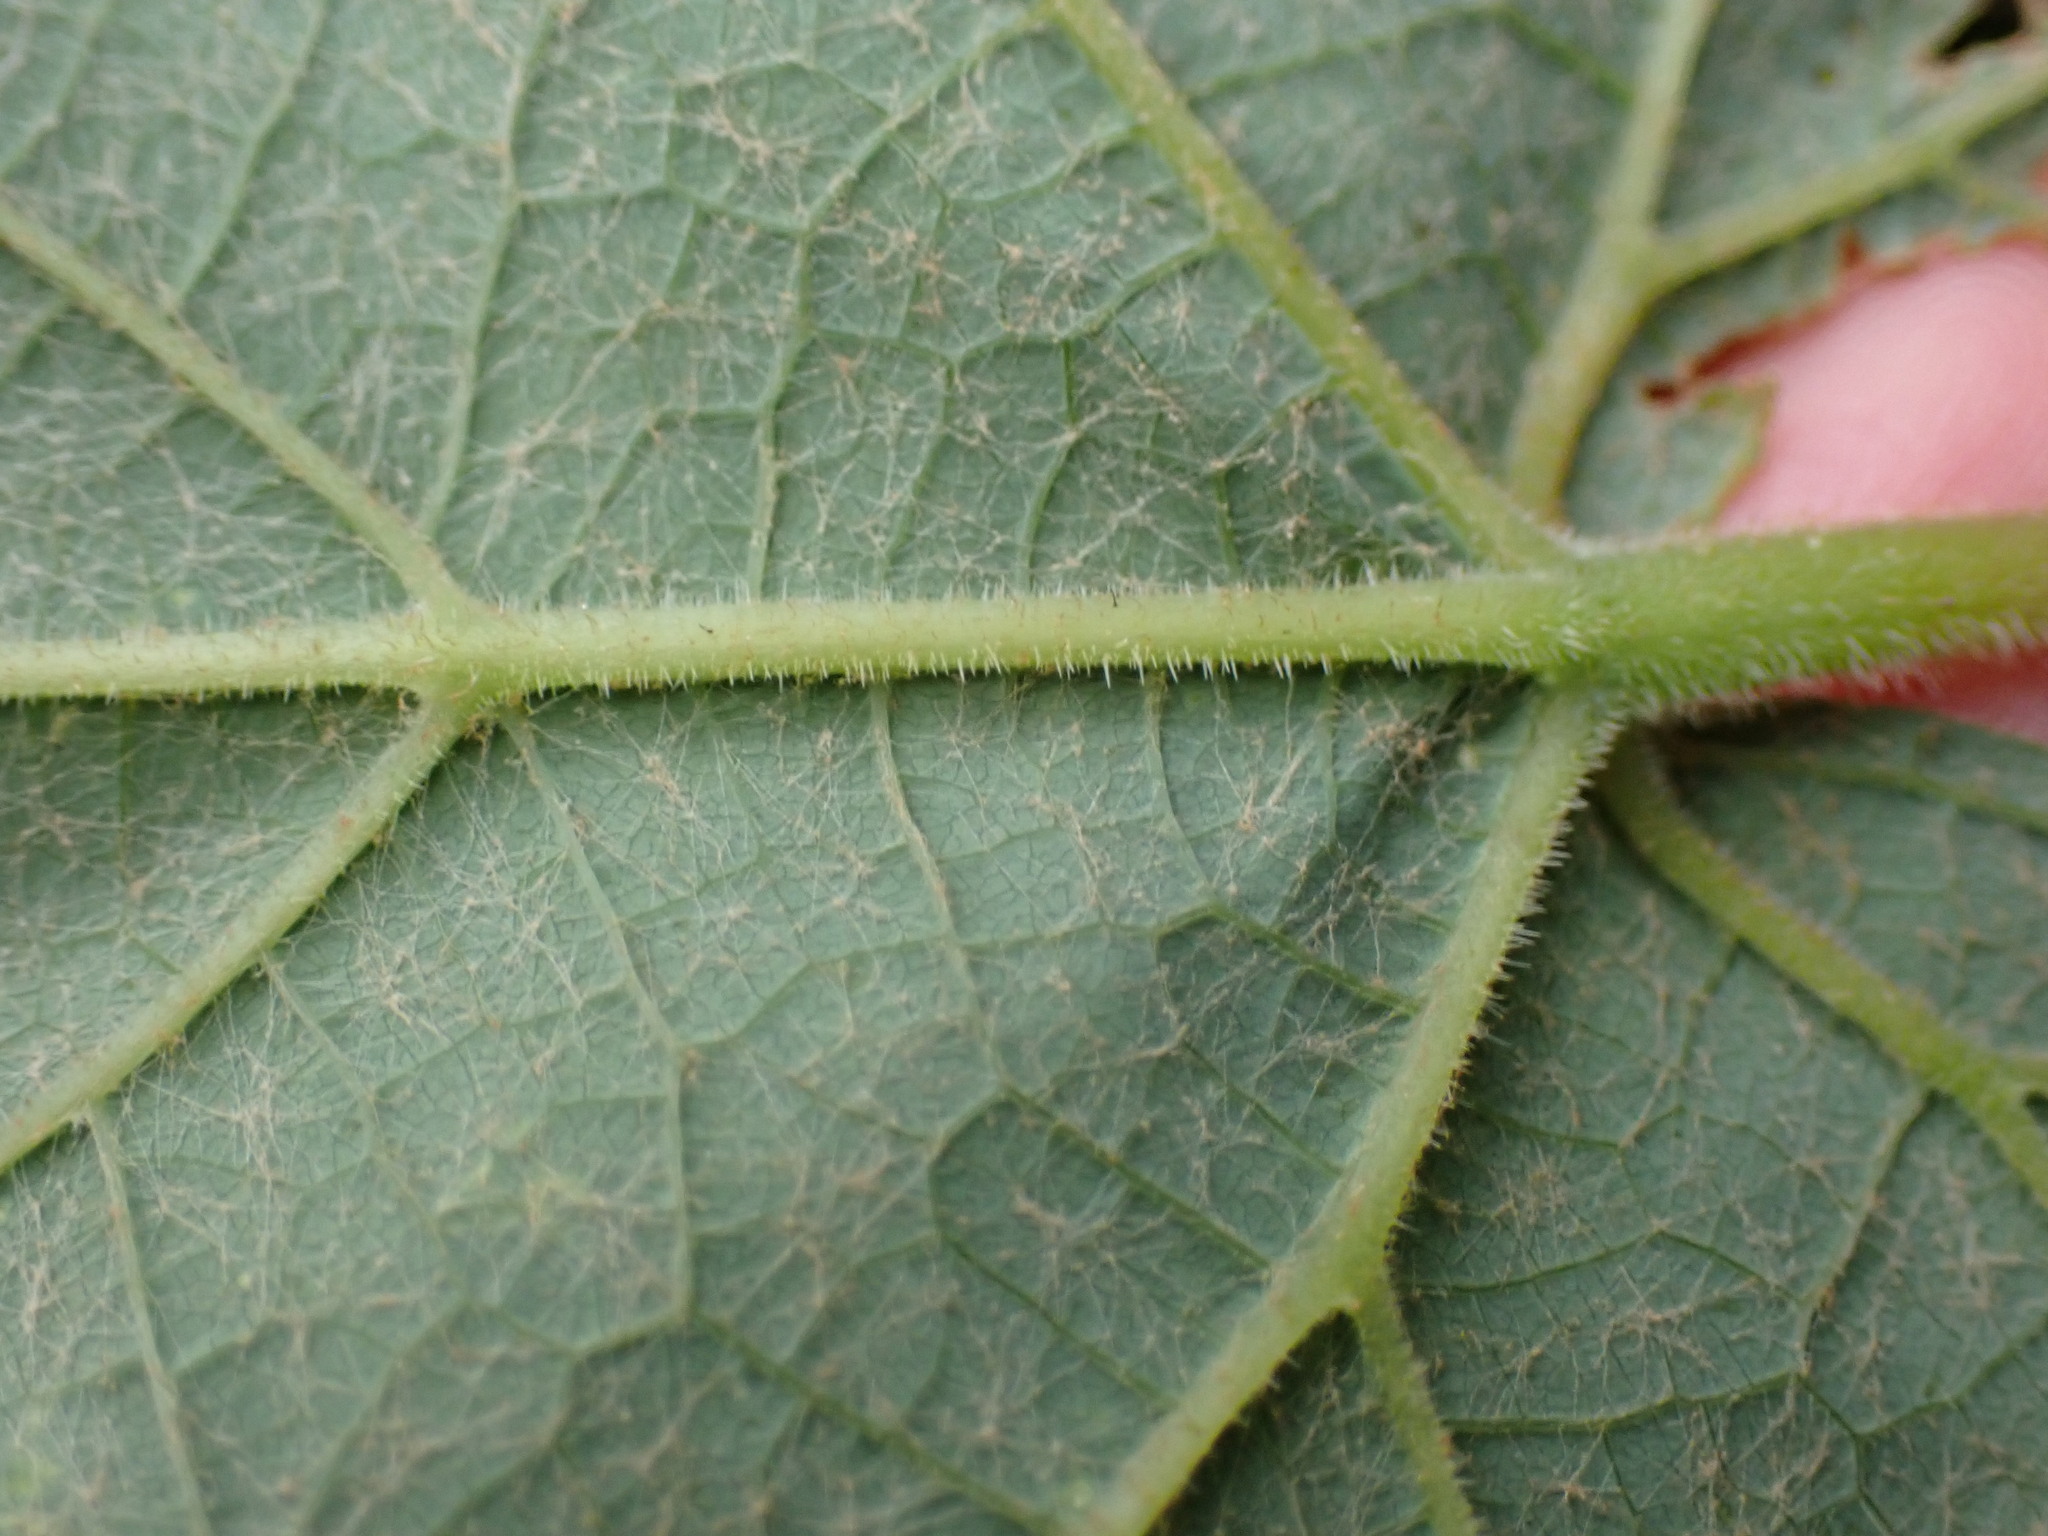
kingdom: Plantae
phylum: Tracheophyta
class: Magnoliopsida
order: Vitales
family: Vitaceae
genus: Vitis
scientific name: Vitis aestivalis
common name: Pigeon grape
